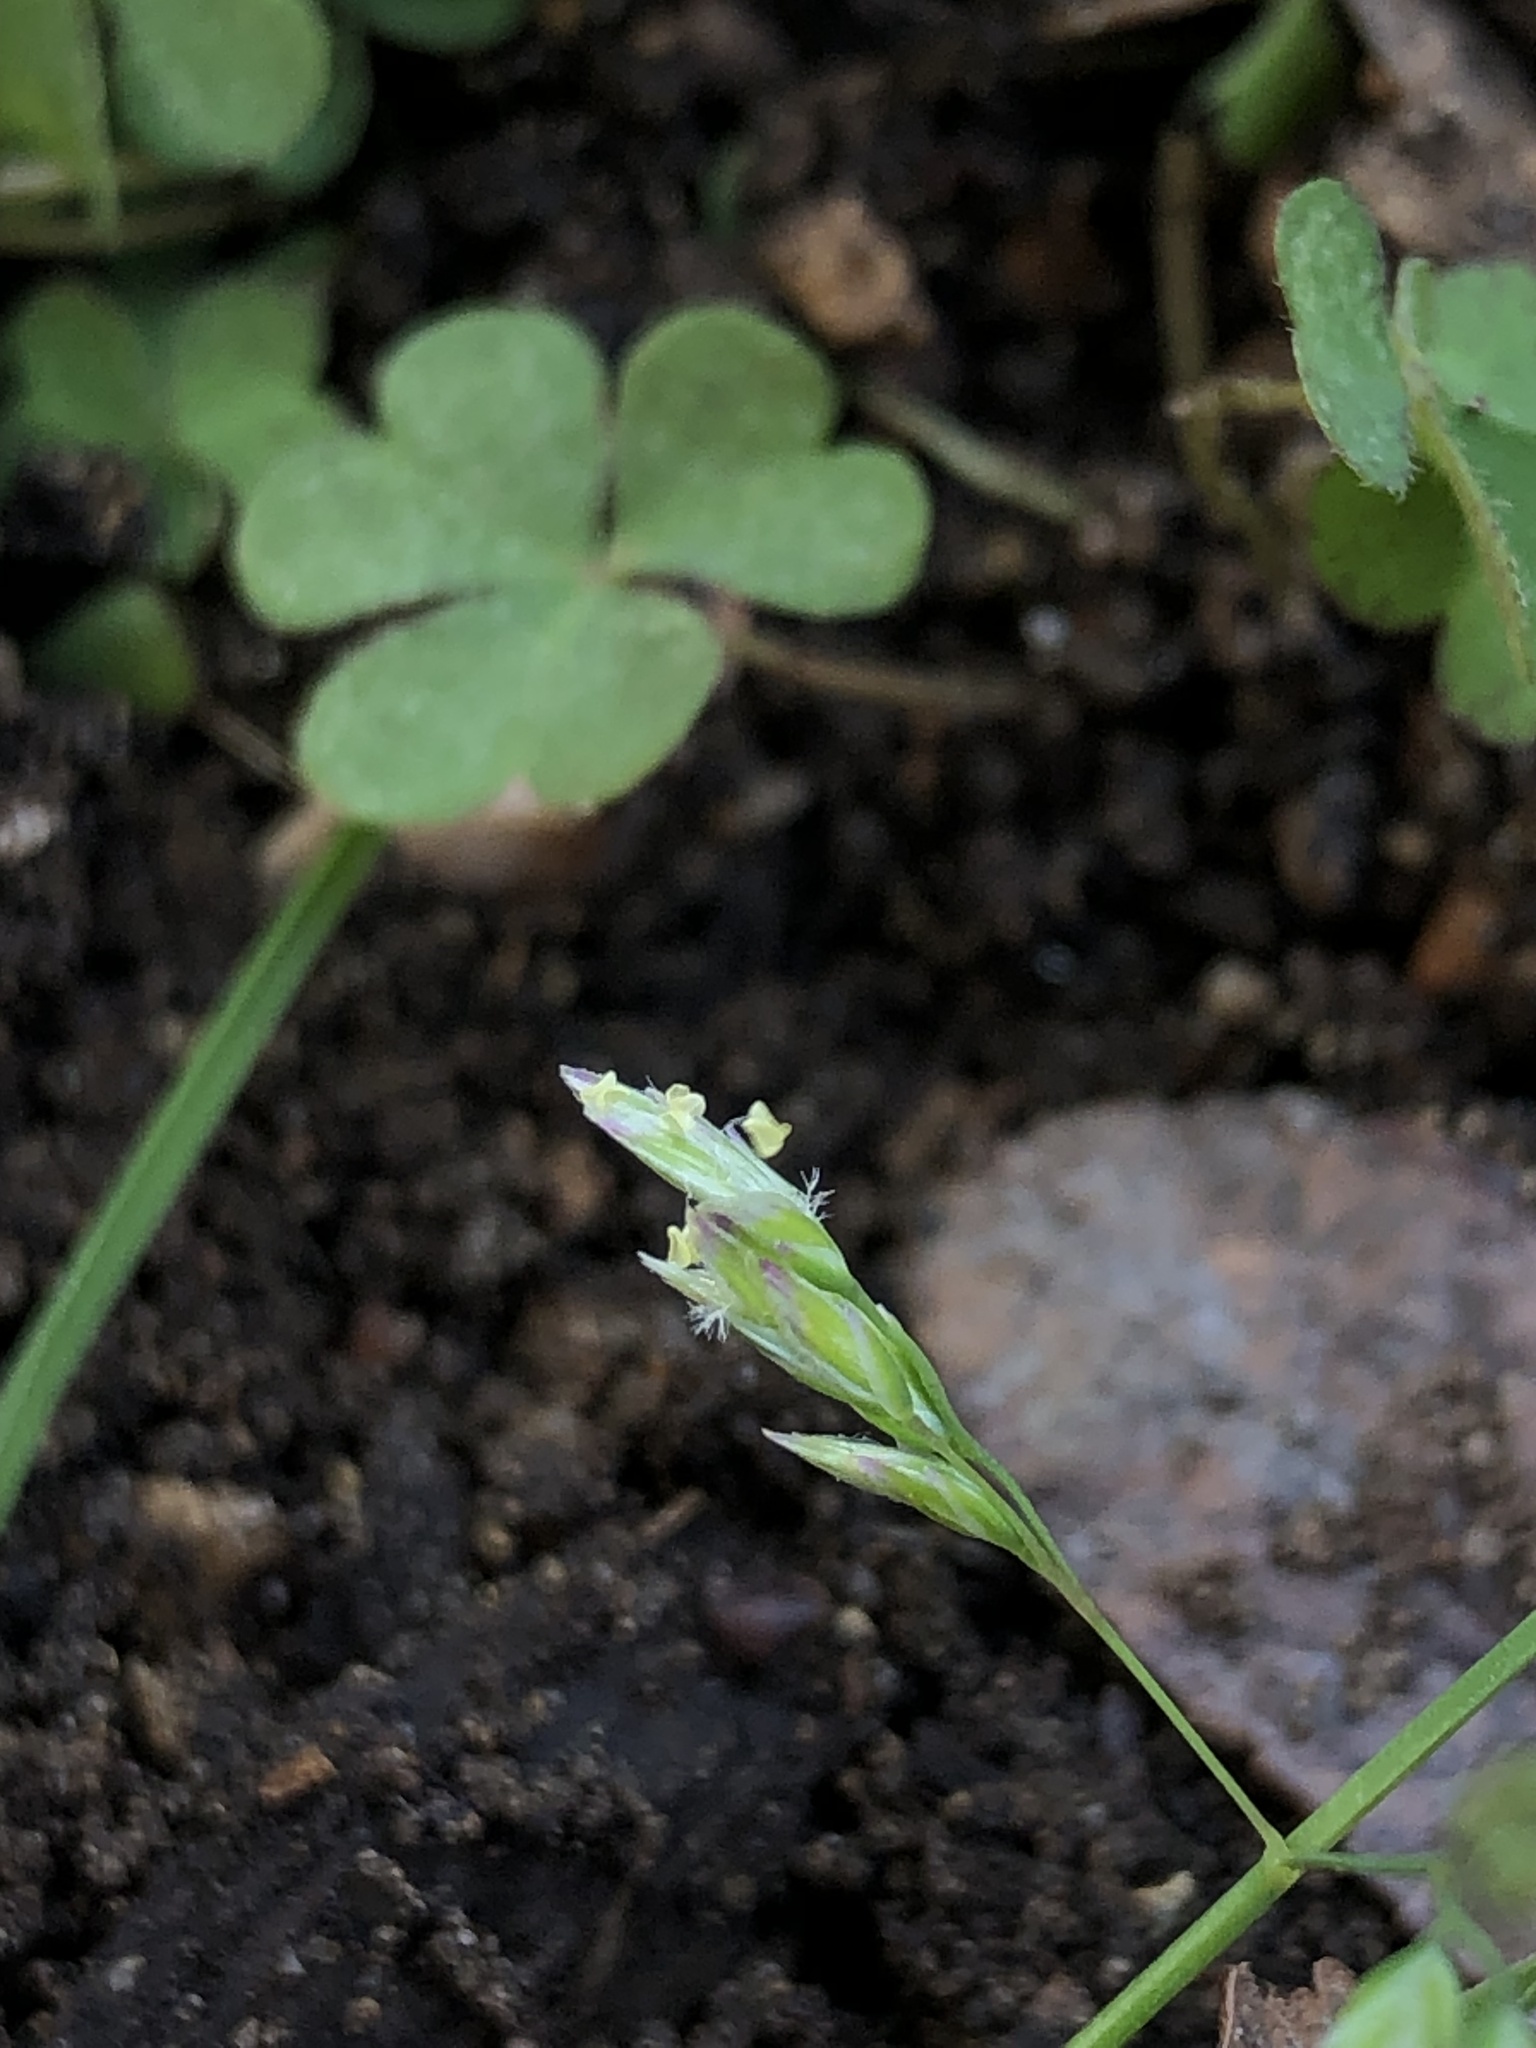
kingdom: Plantae
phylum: Tracheophyta
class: Liliopsida
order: Poales
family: Poaceae
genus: Poa
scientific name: Poa annua
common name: Annual bluegrass
